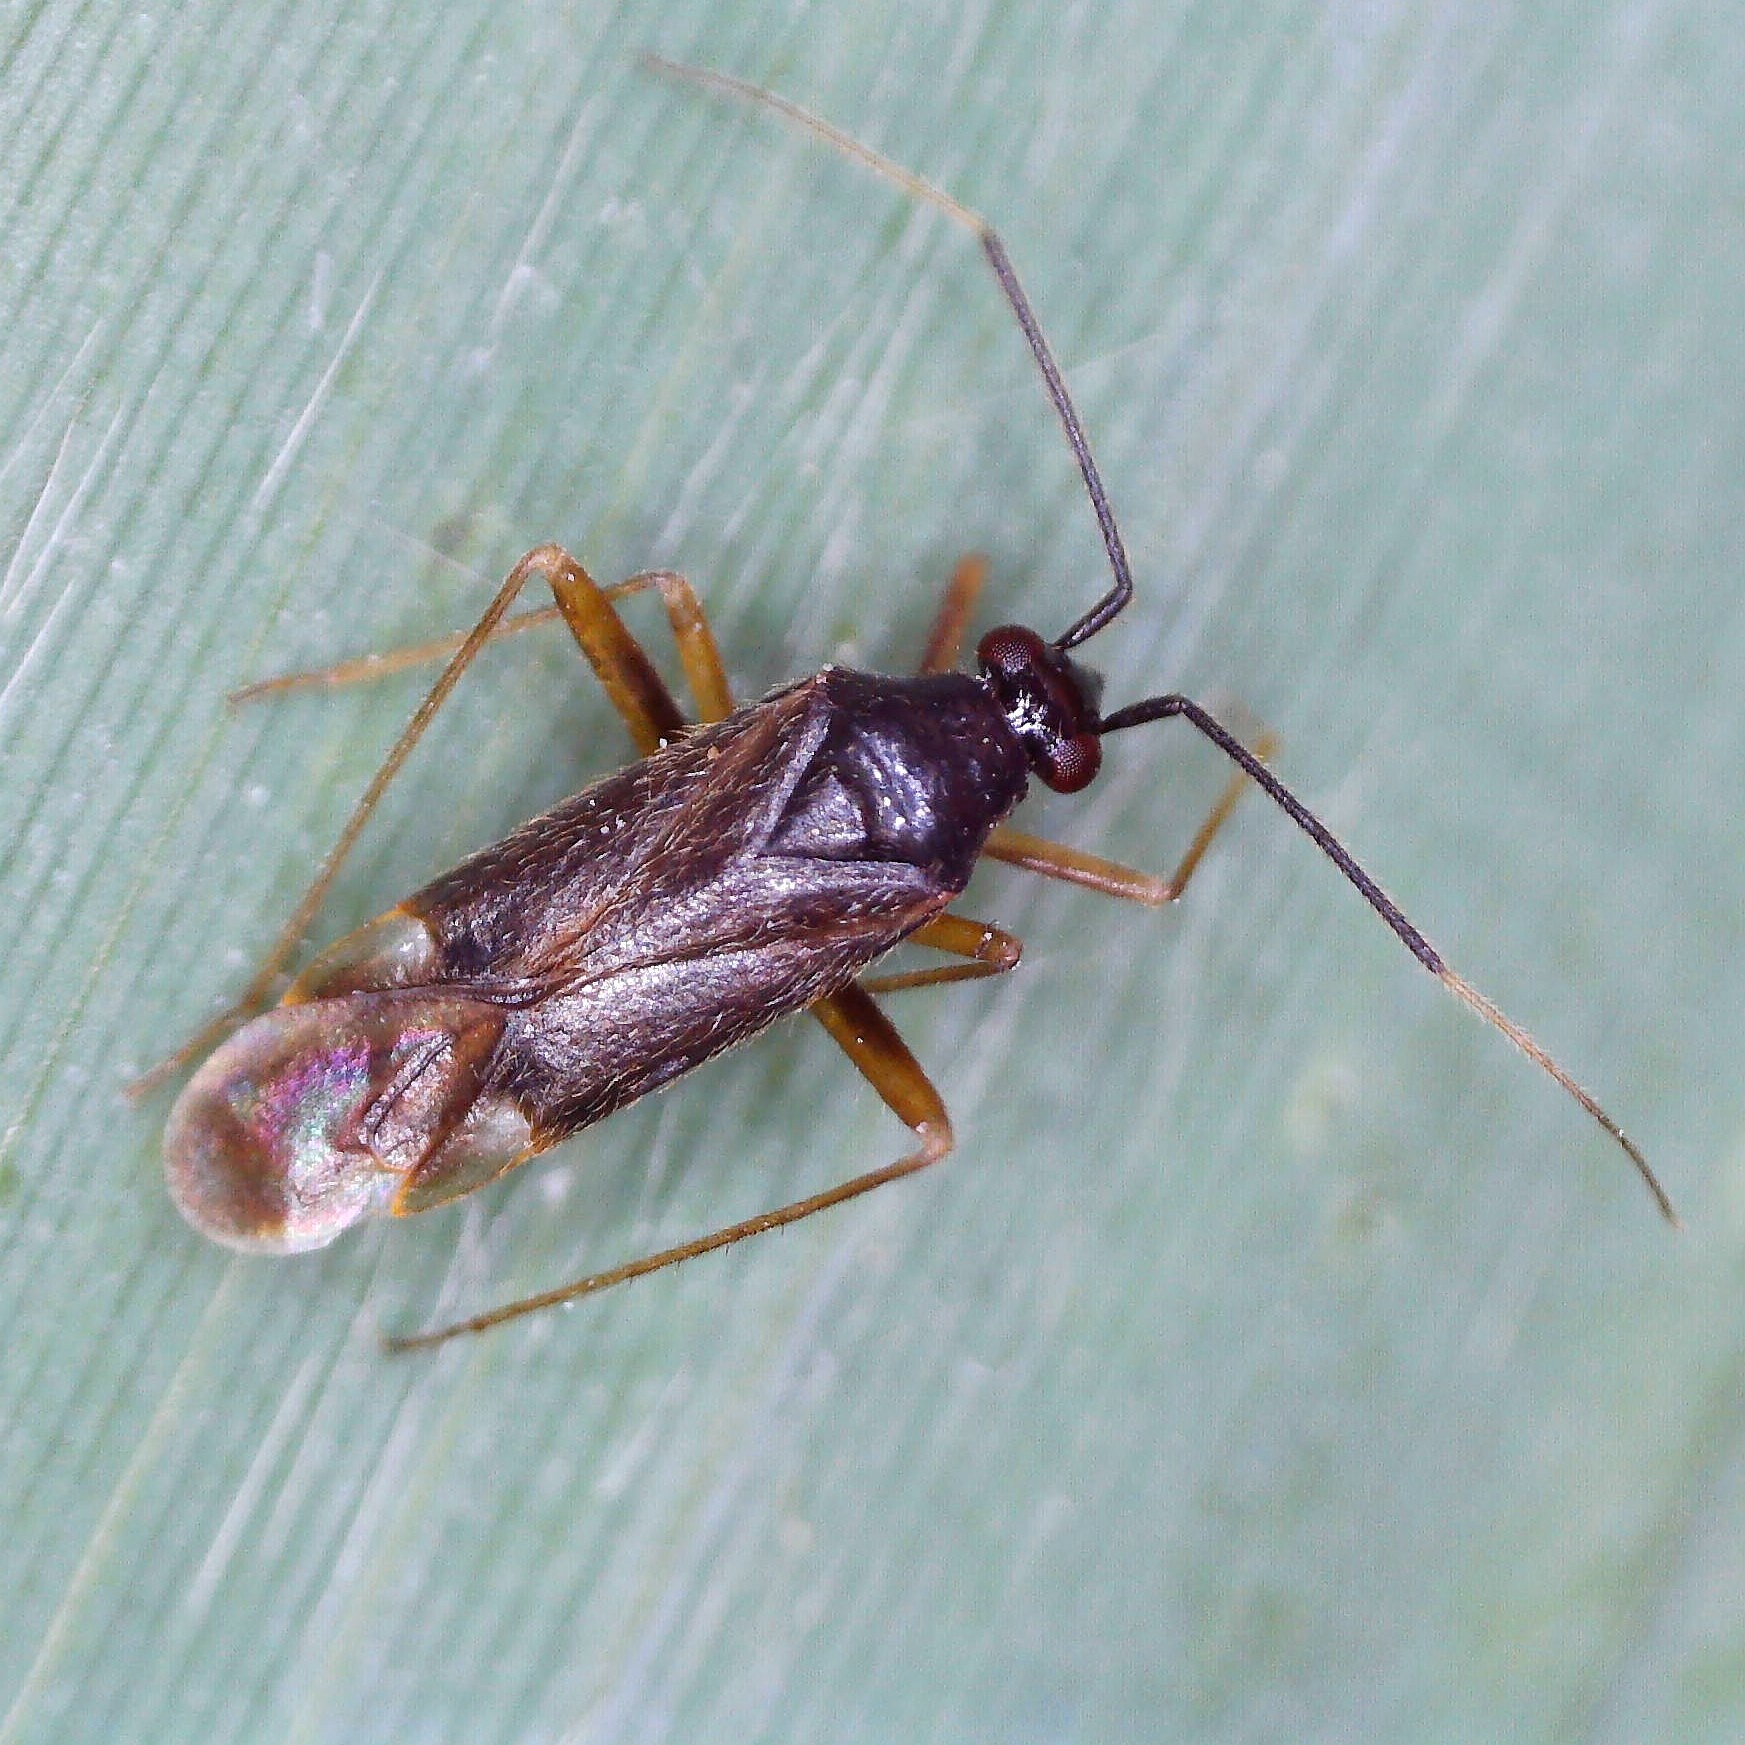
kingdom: Animalia
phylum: Arthropoda
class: Insecta
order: Hemiptera
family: Miridae
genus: Orthonotus
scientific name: Orthonotus rufifrons
